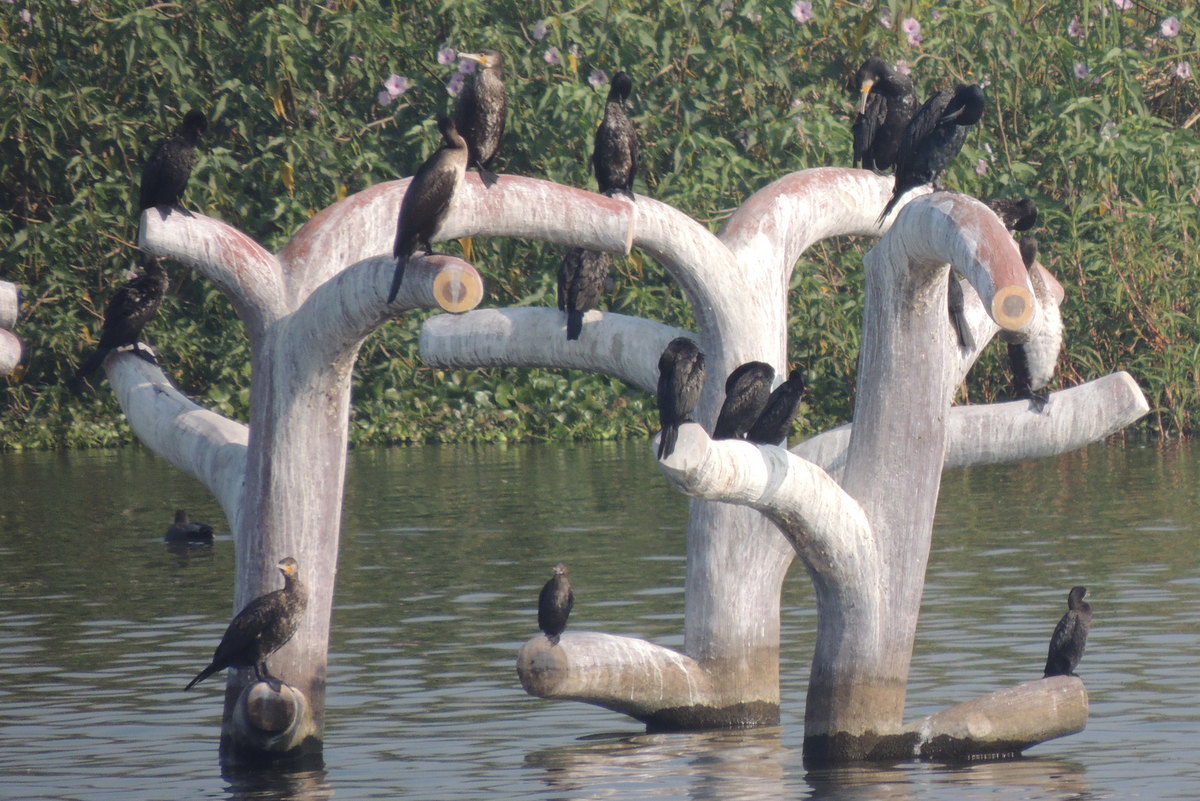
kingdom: Animalia
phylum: Chordata
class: Aves
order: Suliformes
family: Phalacrocoracidae
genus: Phalacrocorax
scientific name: Phalacrocorax carbo
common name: Great cormorant
